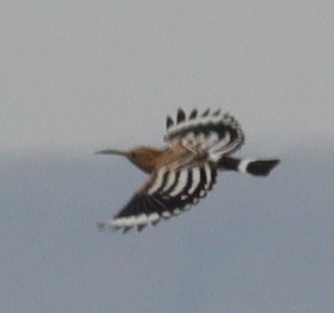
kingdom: Animalia
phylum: Chordata
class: Aves
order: Bucerotiformes
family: Upupidae
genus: Upupa
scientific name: Upupa epops
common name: Eurasian hoopoe
